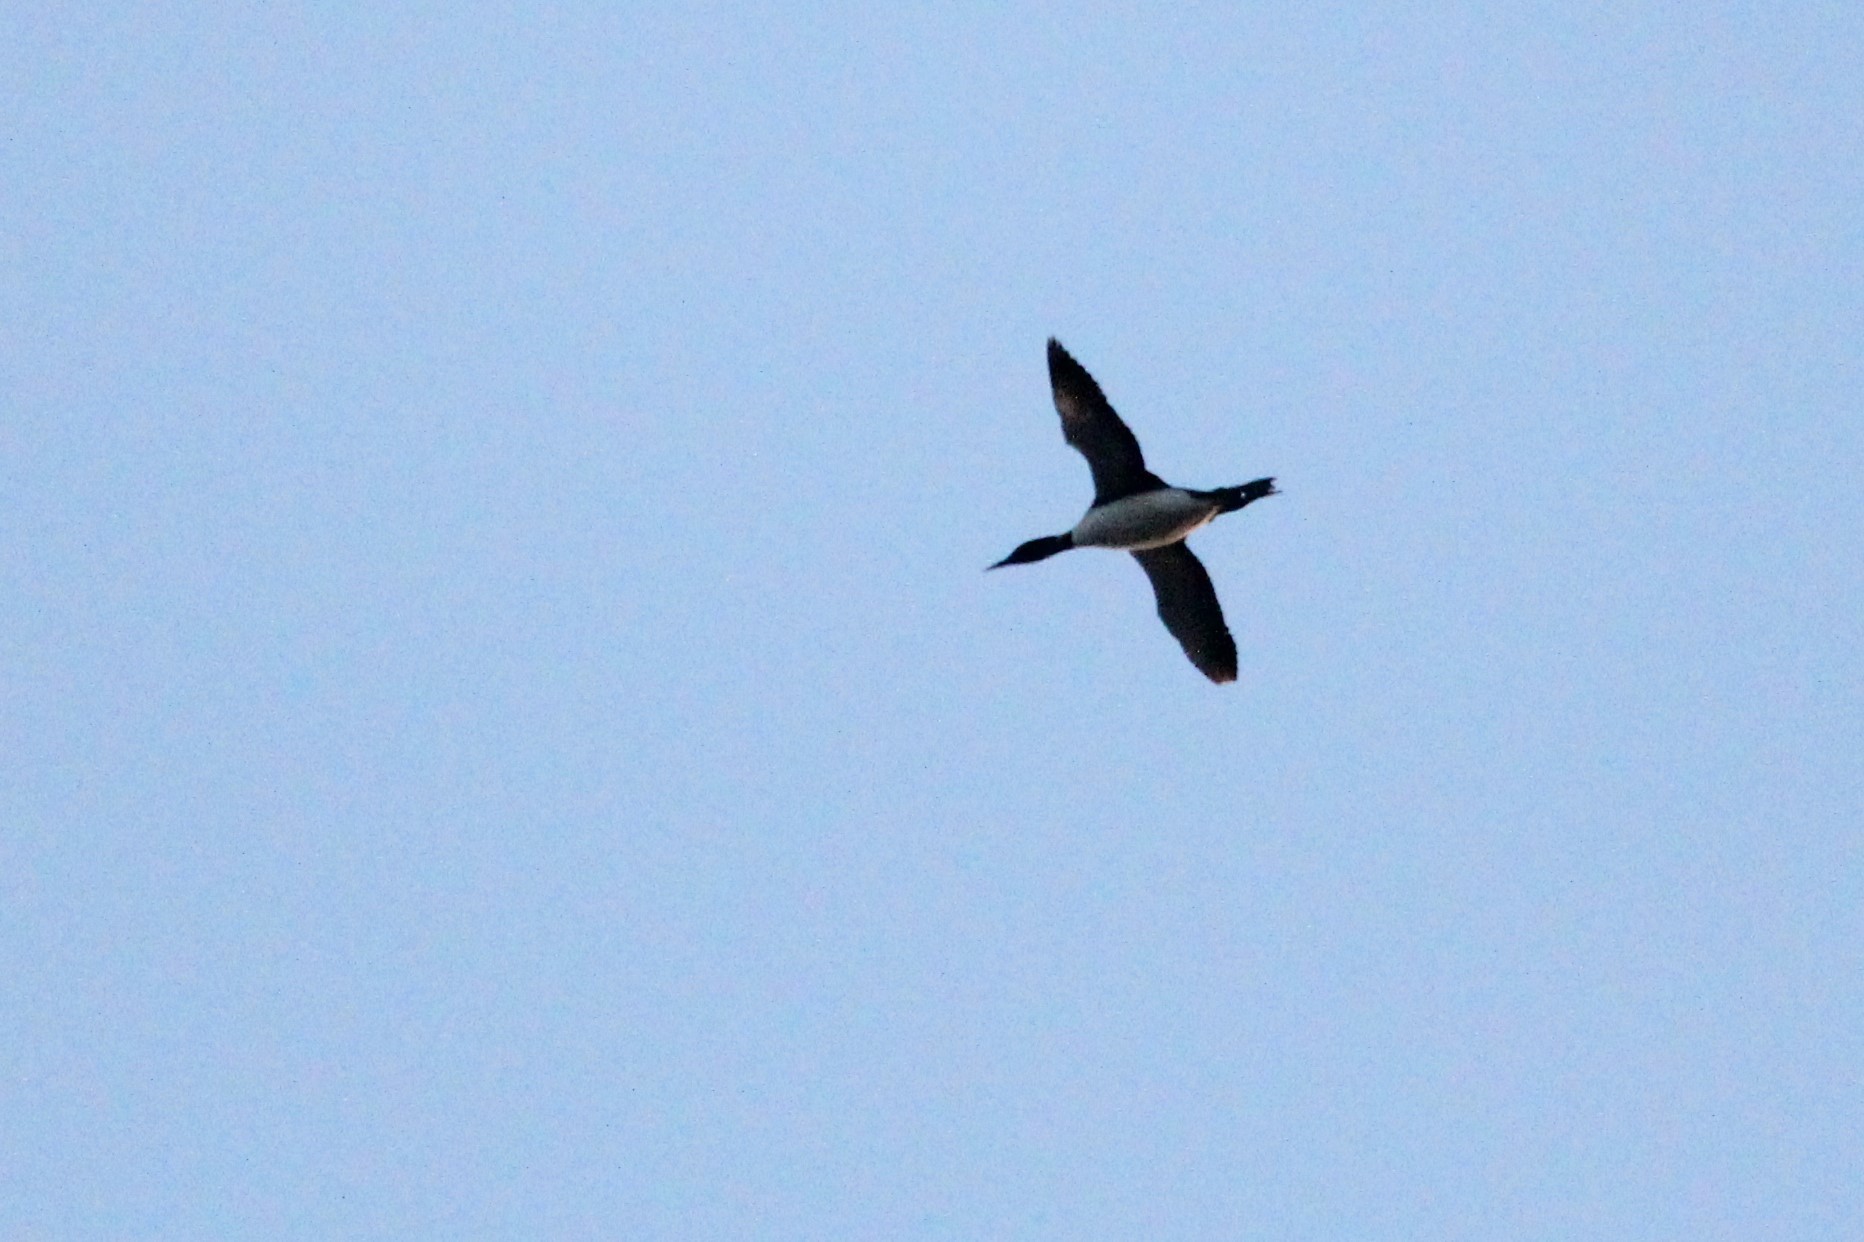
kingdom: Animalia
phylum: Chordata
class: Aves
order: Gaviiformes
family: Gaviidae
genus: Gavia
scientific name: Gavia immer
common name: Common loon
